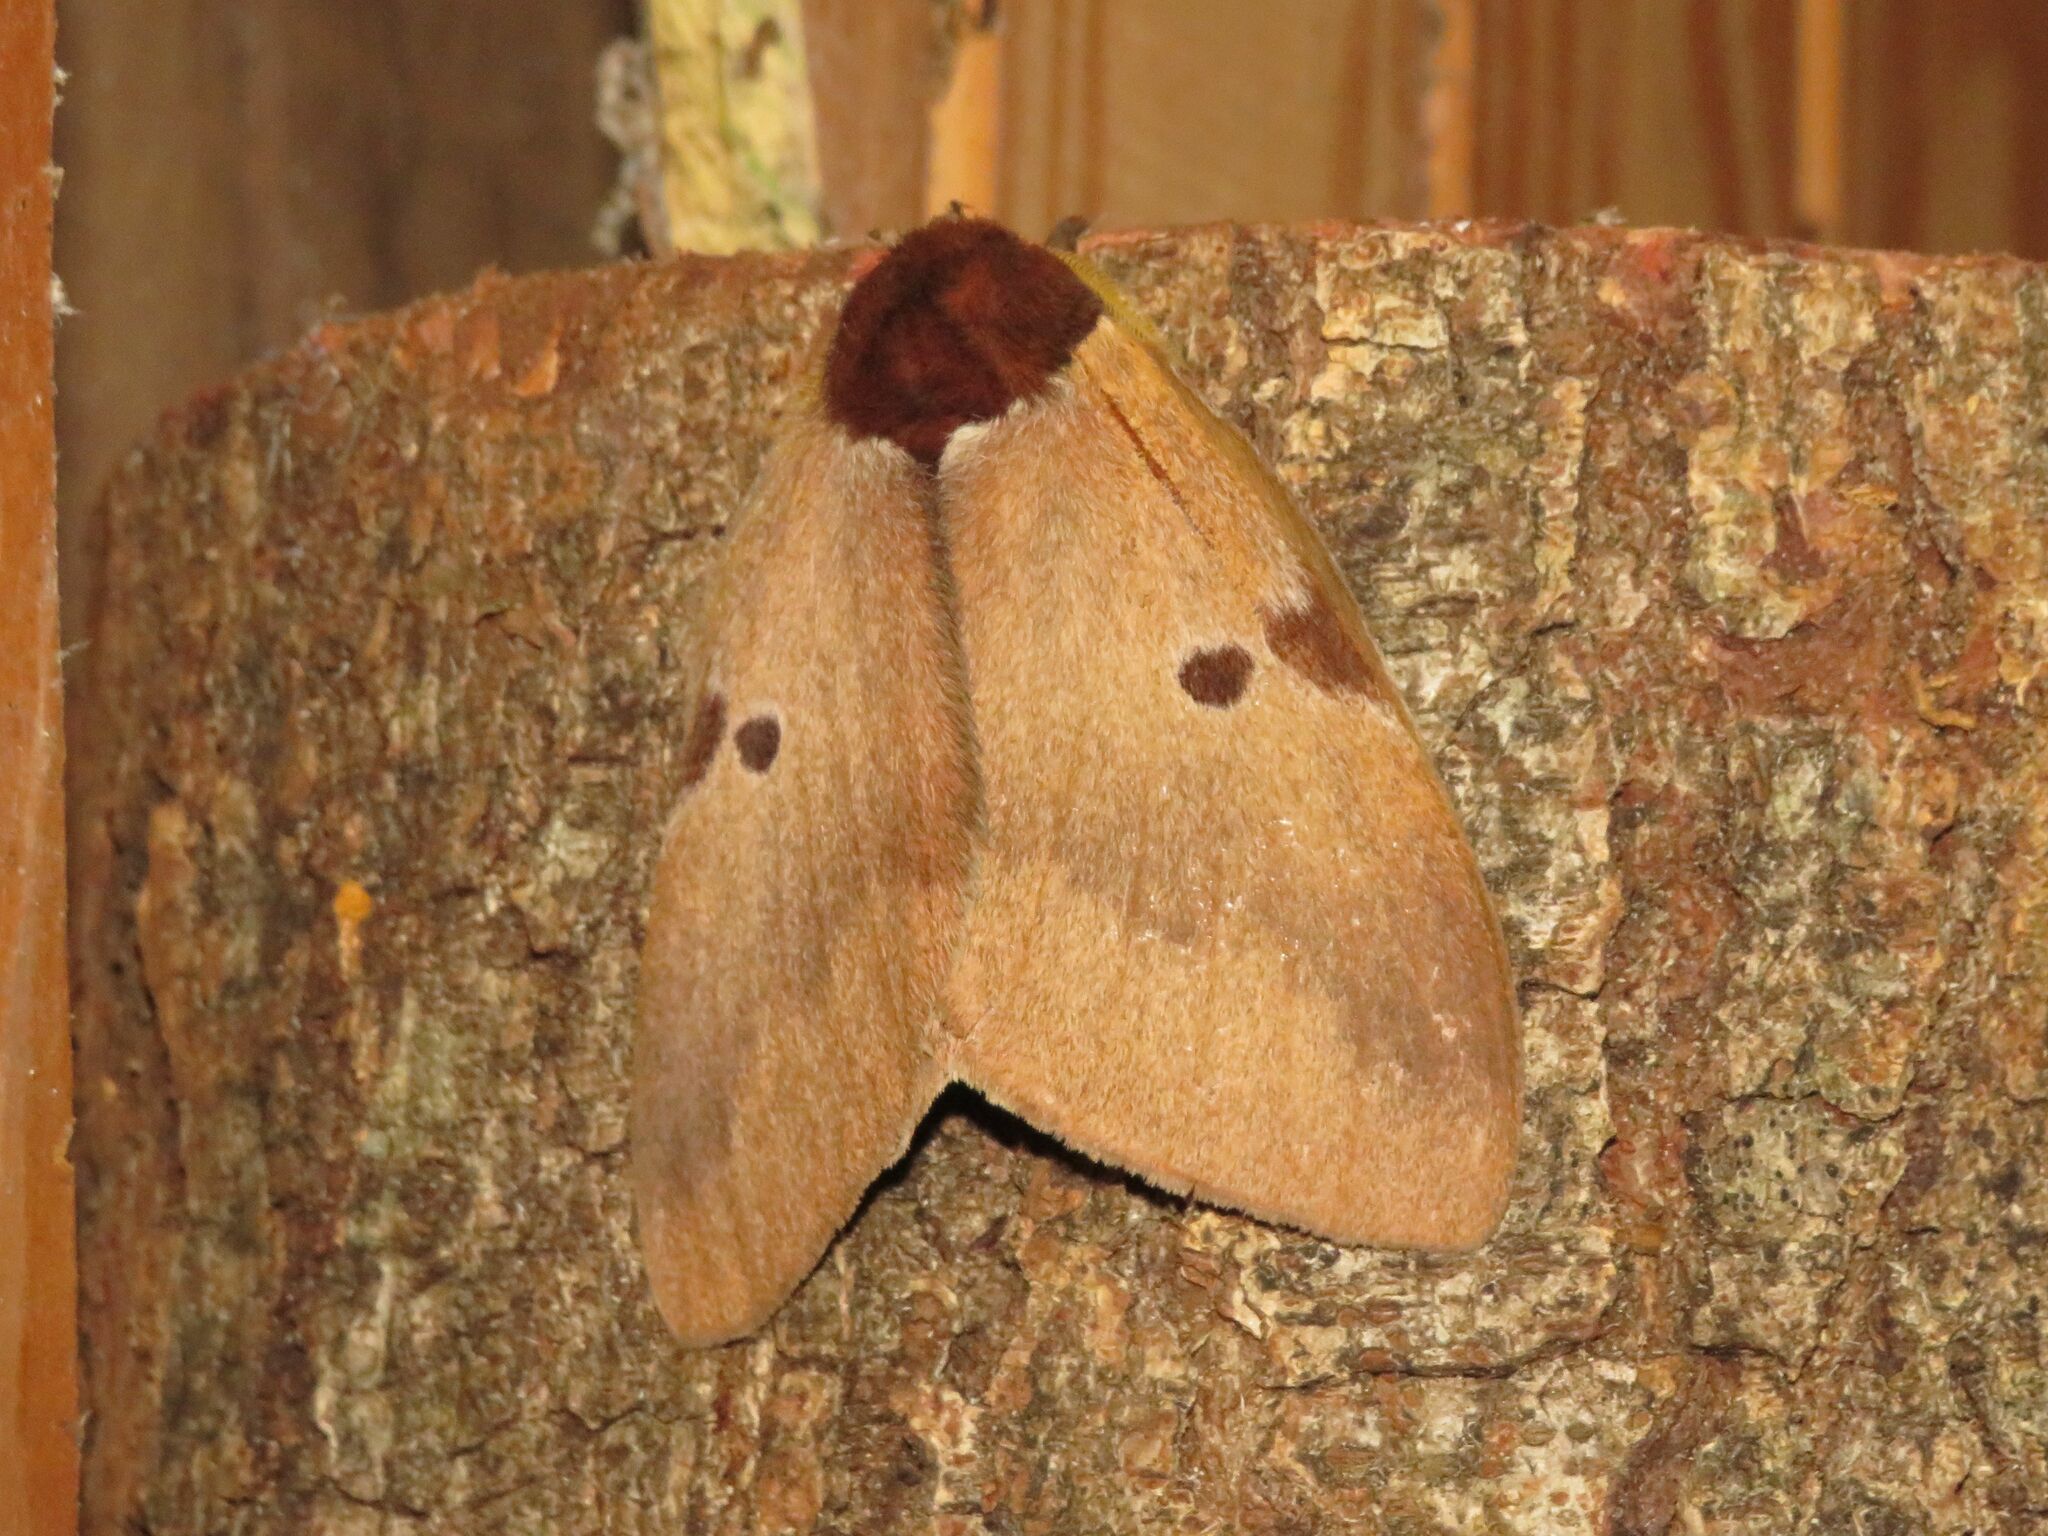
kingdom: Animalia
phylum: Arthropoda
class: Insecta
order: Lepidoptera
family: Saturniidae
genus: Dirphia
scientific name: Dirphia baroma
